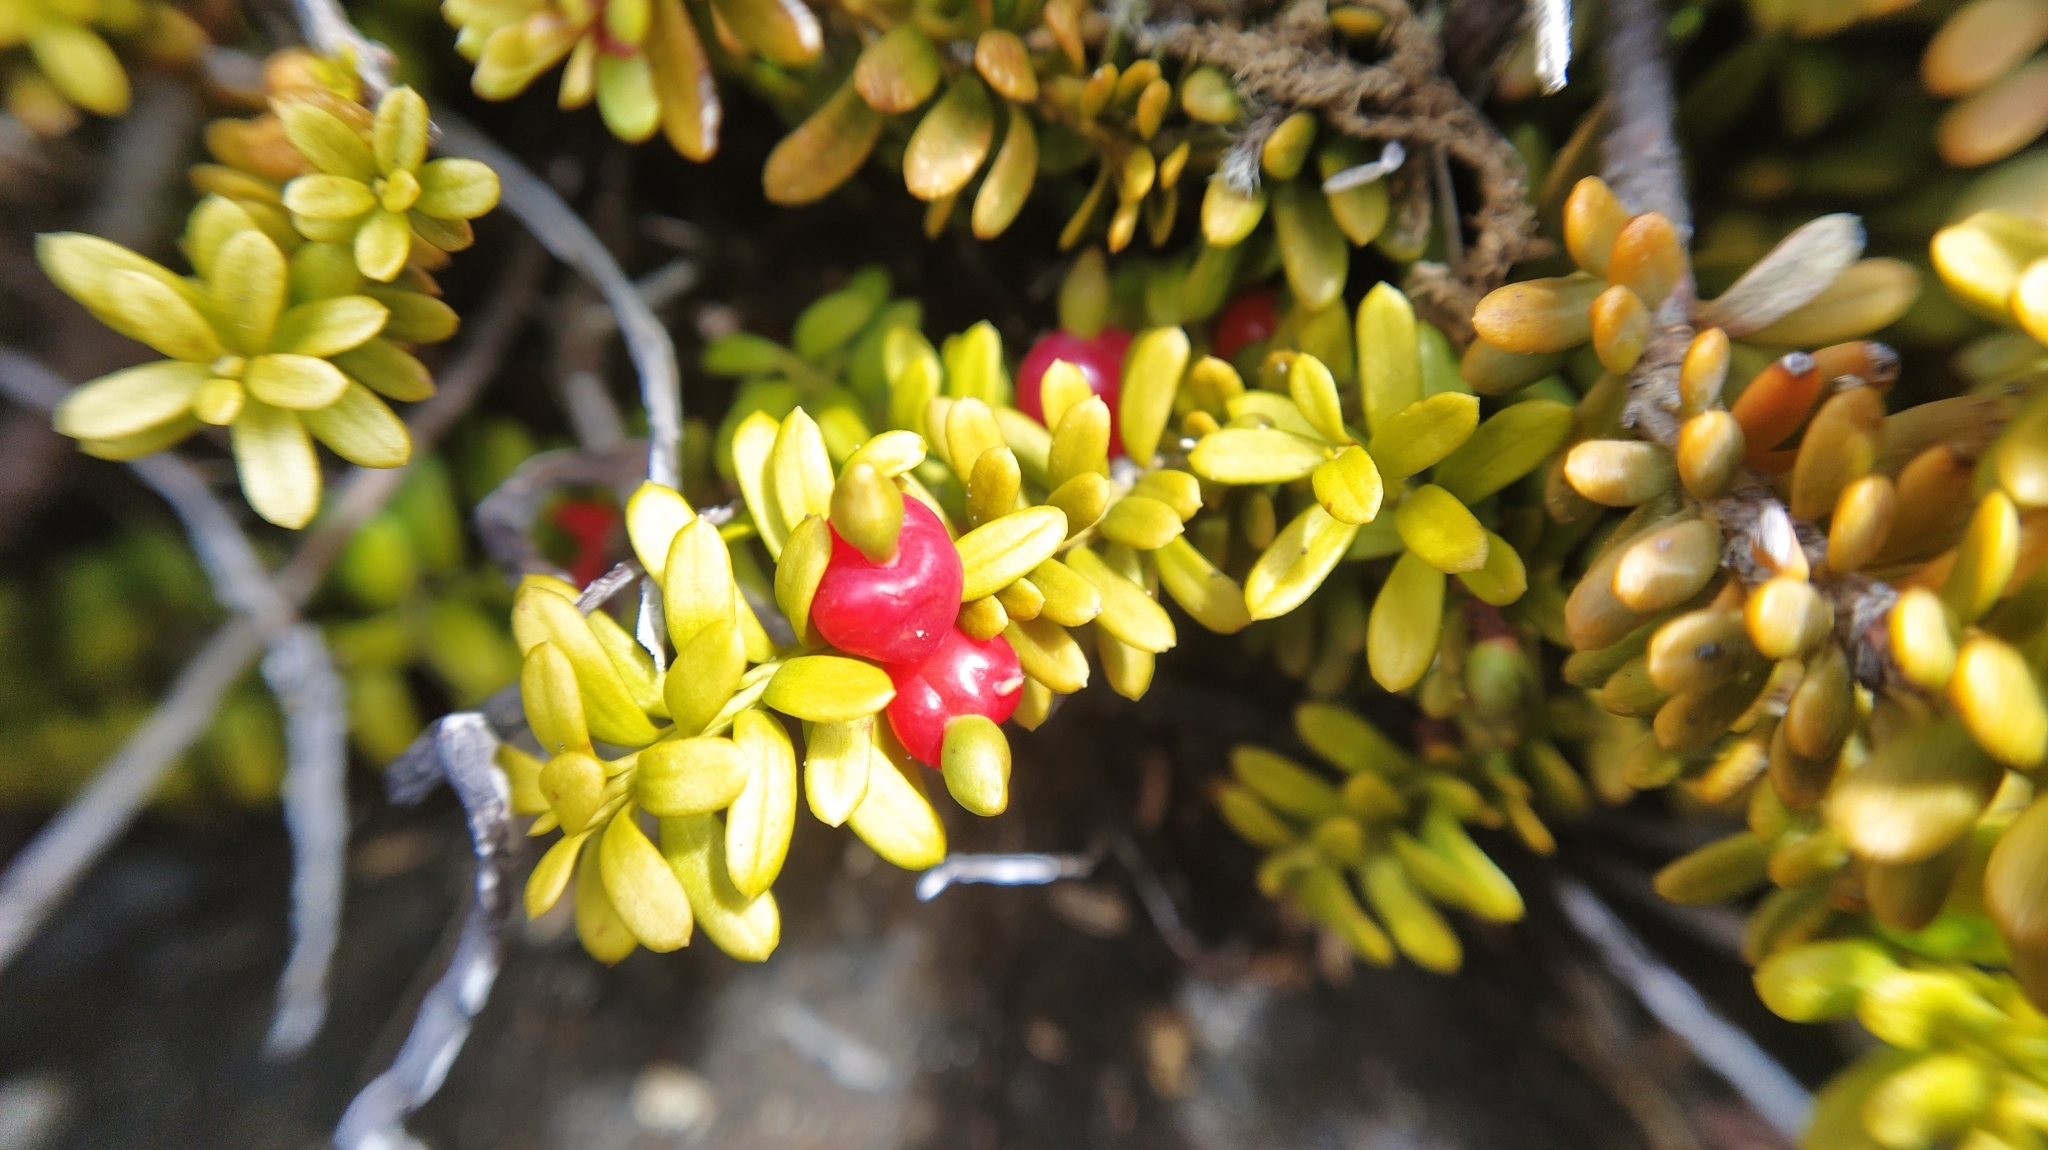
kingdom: Plantae
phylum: Tracheophyta
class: Pinopsida
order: Pinales
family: Podocarpaceae
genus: Podocarpus
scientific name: Podocarpus nivalis
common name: Alpine totara
